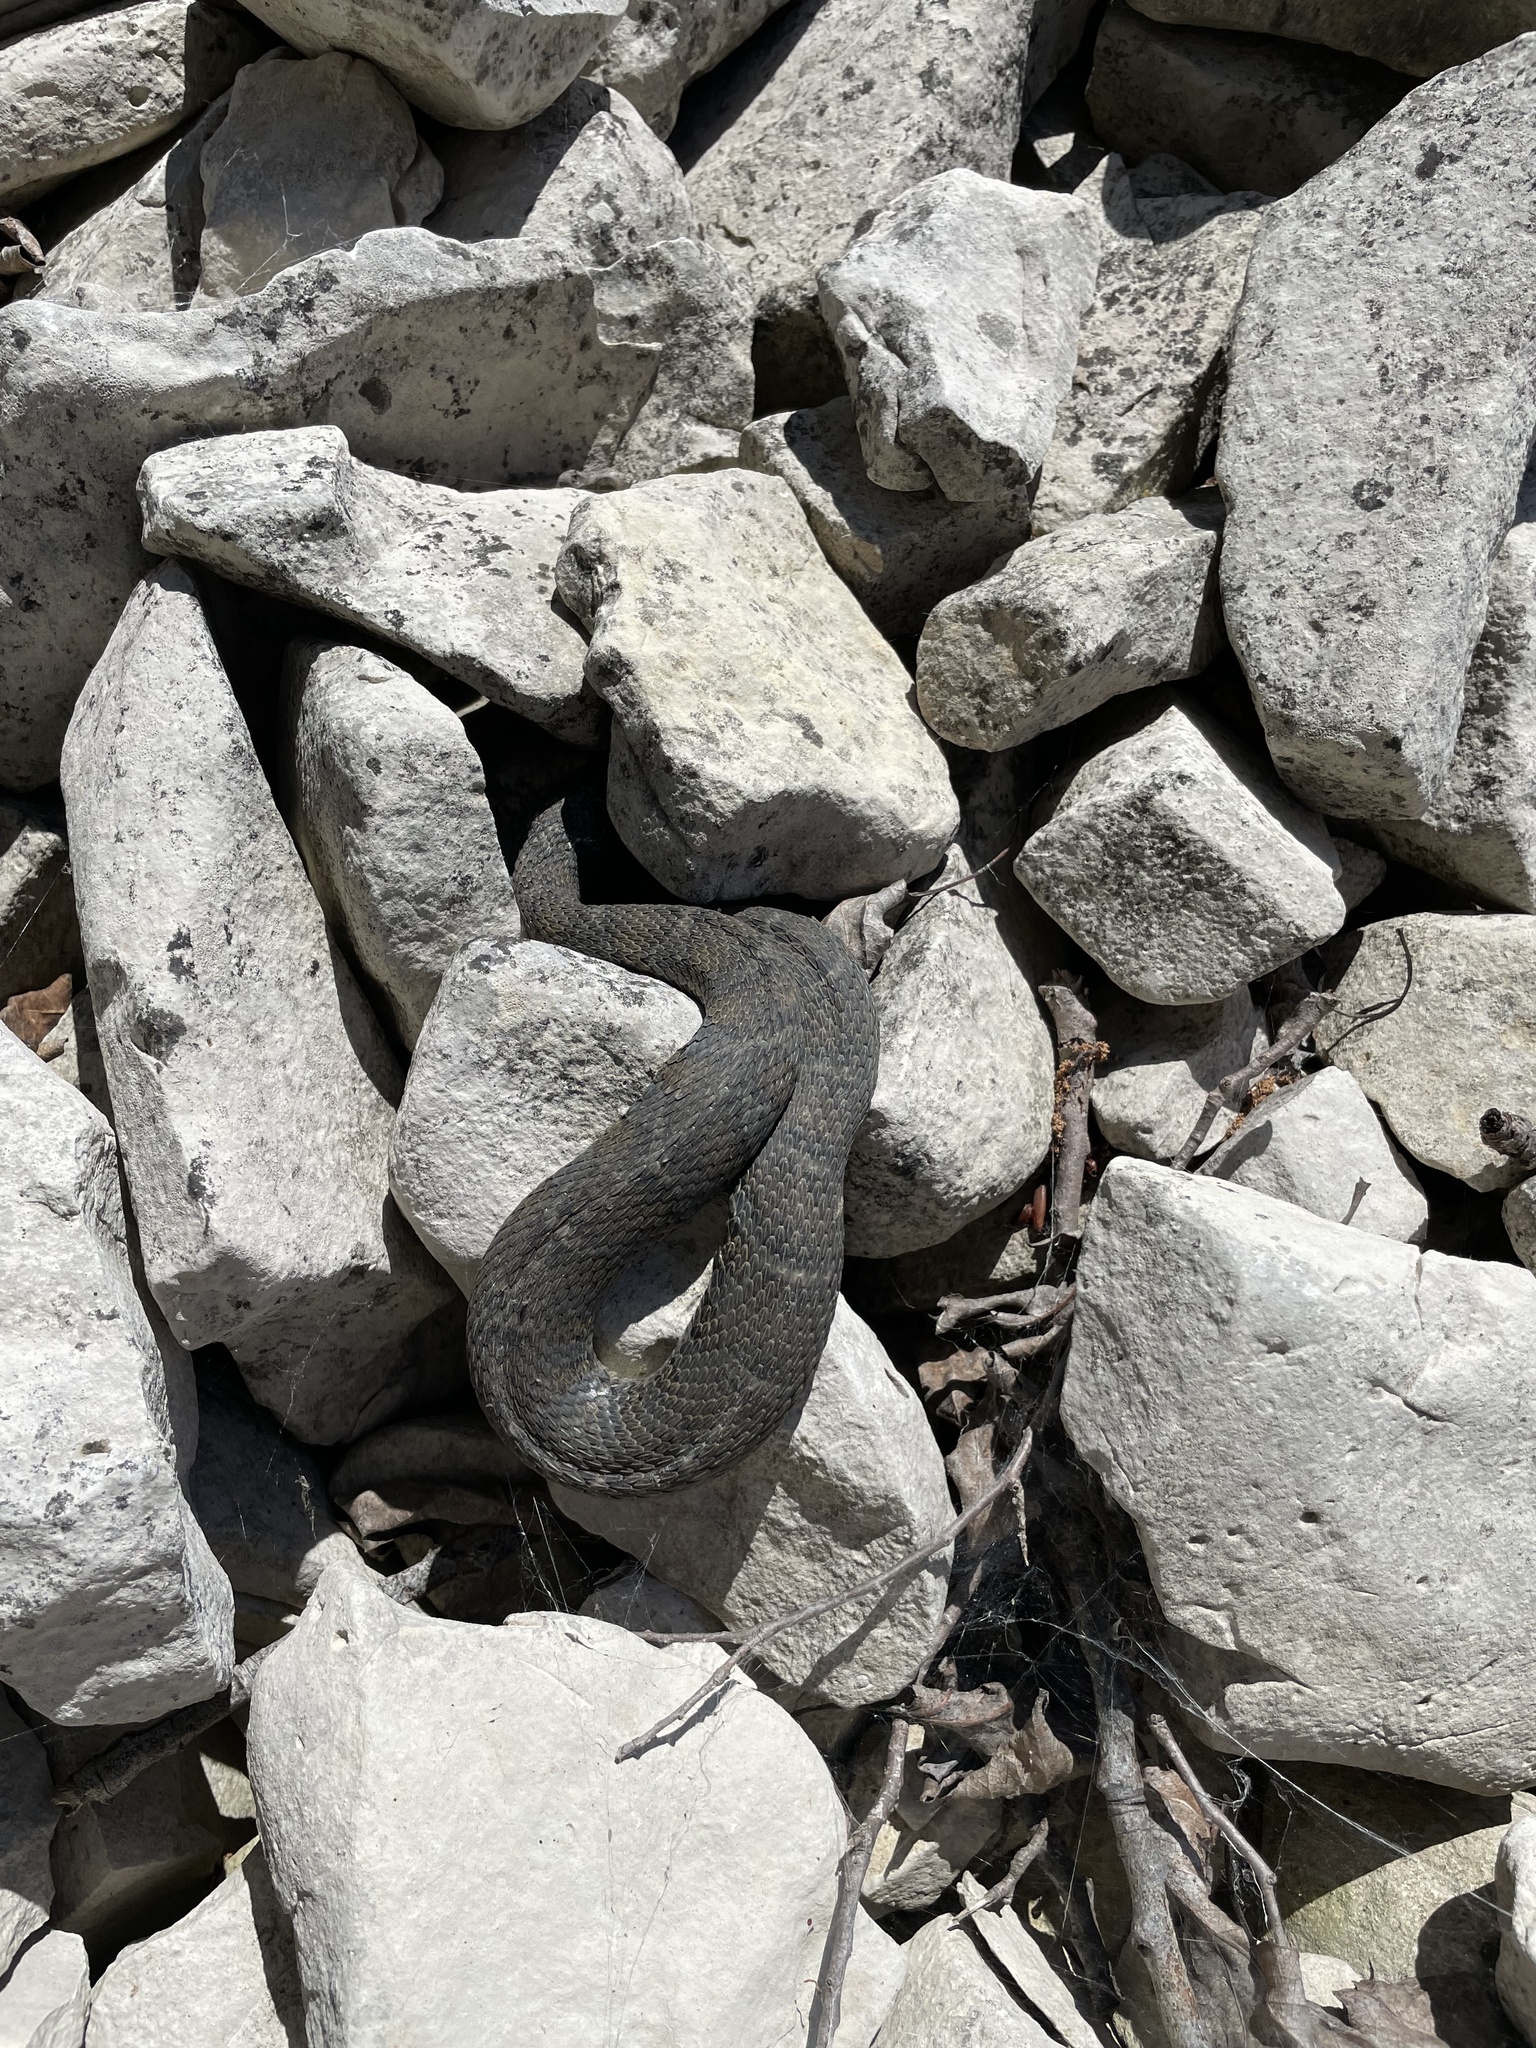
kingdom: Animalia
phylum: Chordata
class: Squamata
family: Colubridae
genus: Nerodia
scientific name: Nerodia sipedon
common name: Northern water snake
